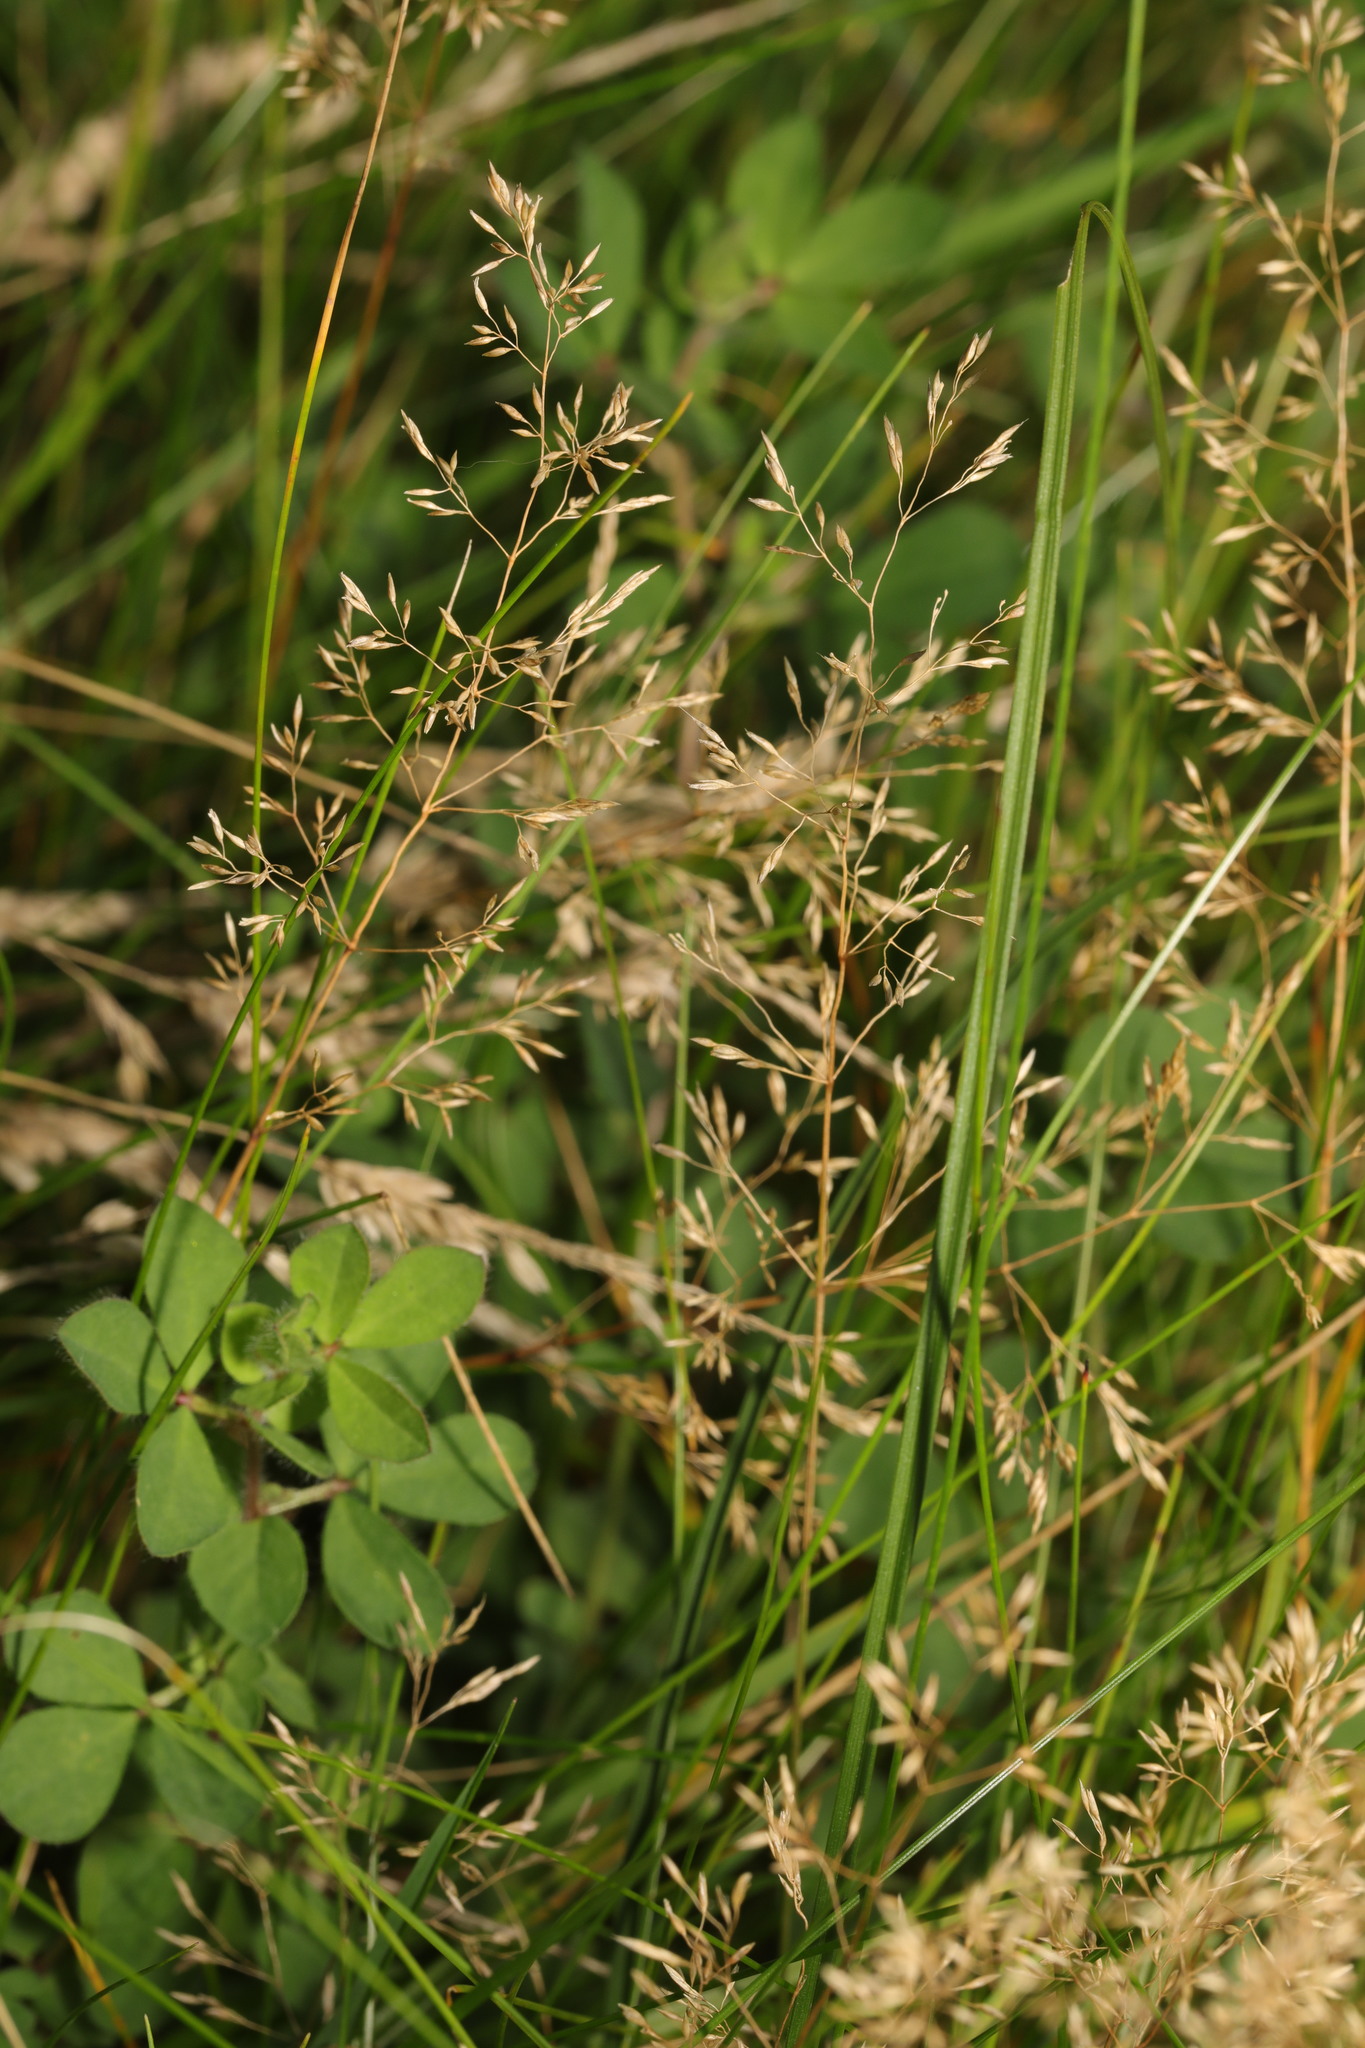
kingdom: Plantae
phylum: Tracheophyta
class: Liliopsida
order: Poales
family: Poaceae
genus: Agrostis
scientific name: Agrostis capillaris
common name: Colonial bentgrass
